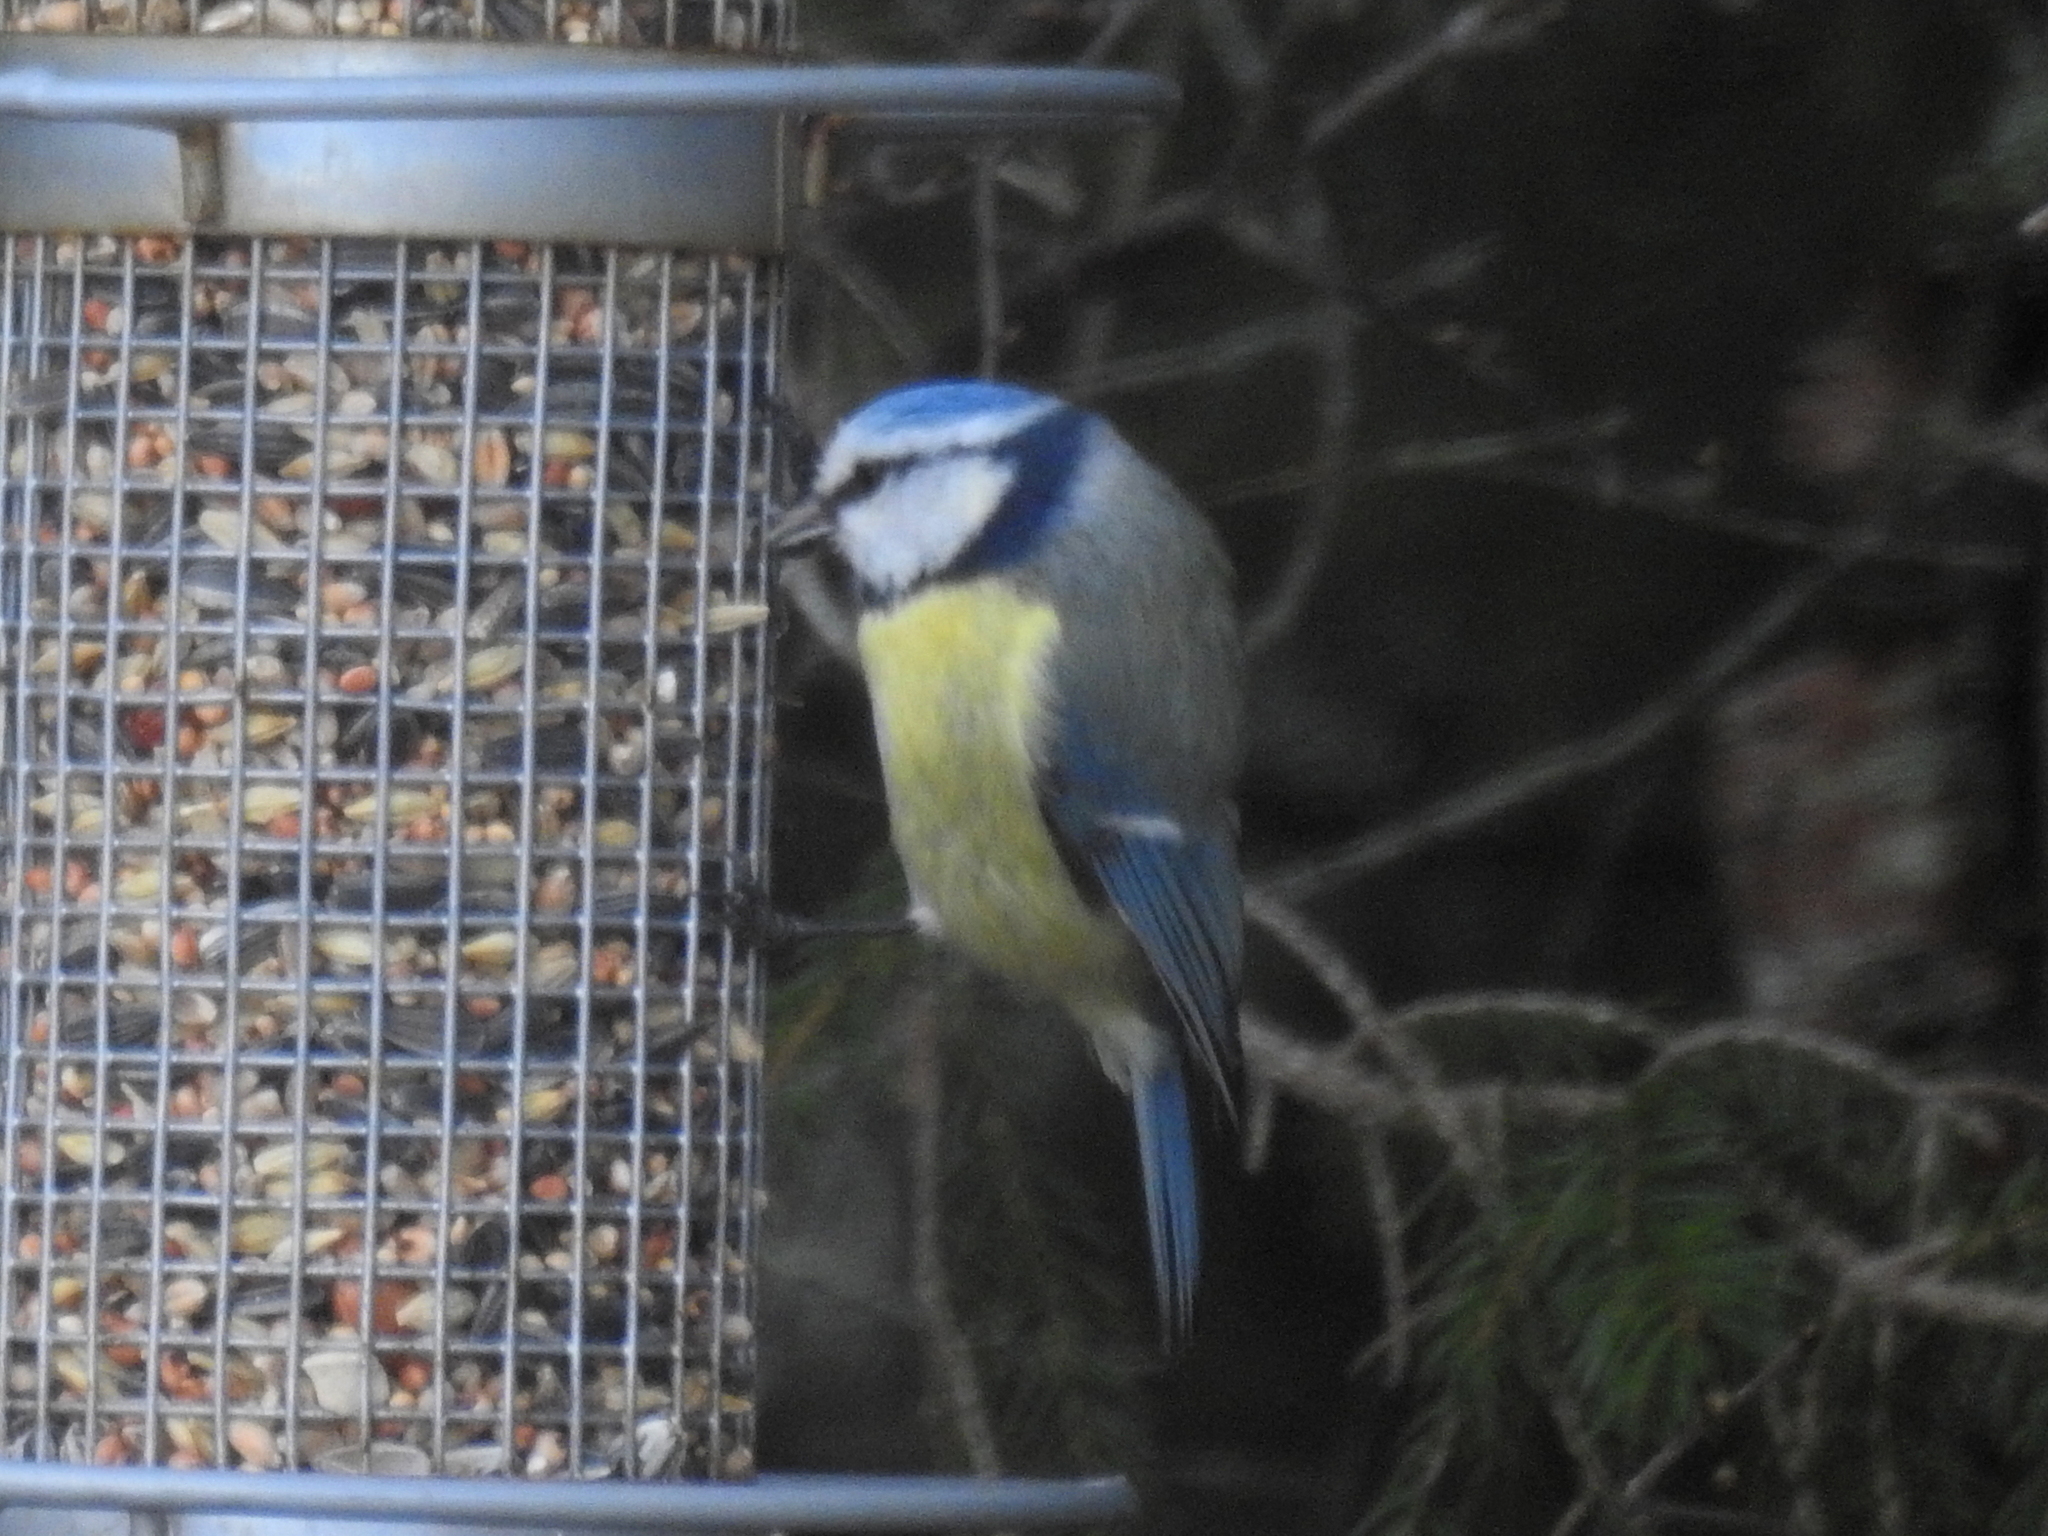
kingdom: Animalia
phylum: Chordata
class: Aves
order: Passeriformes
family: Paridae
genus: Cyanistes
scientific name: Cyanistes caeruleus
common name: Eurasian blue tit
